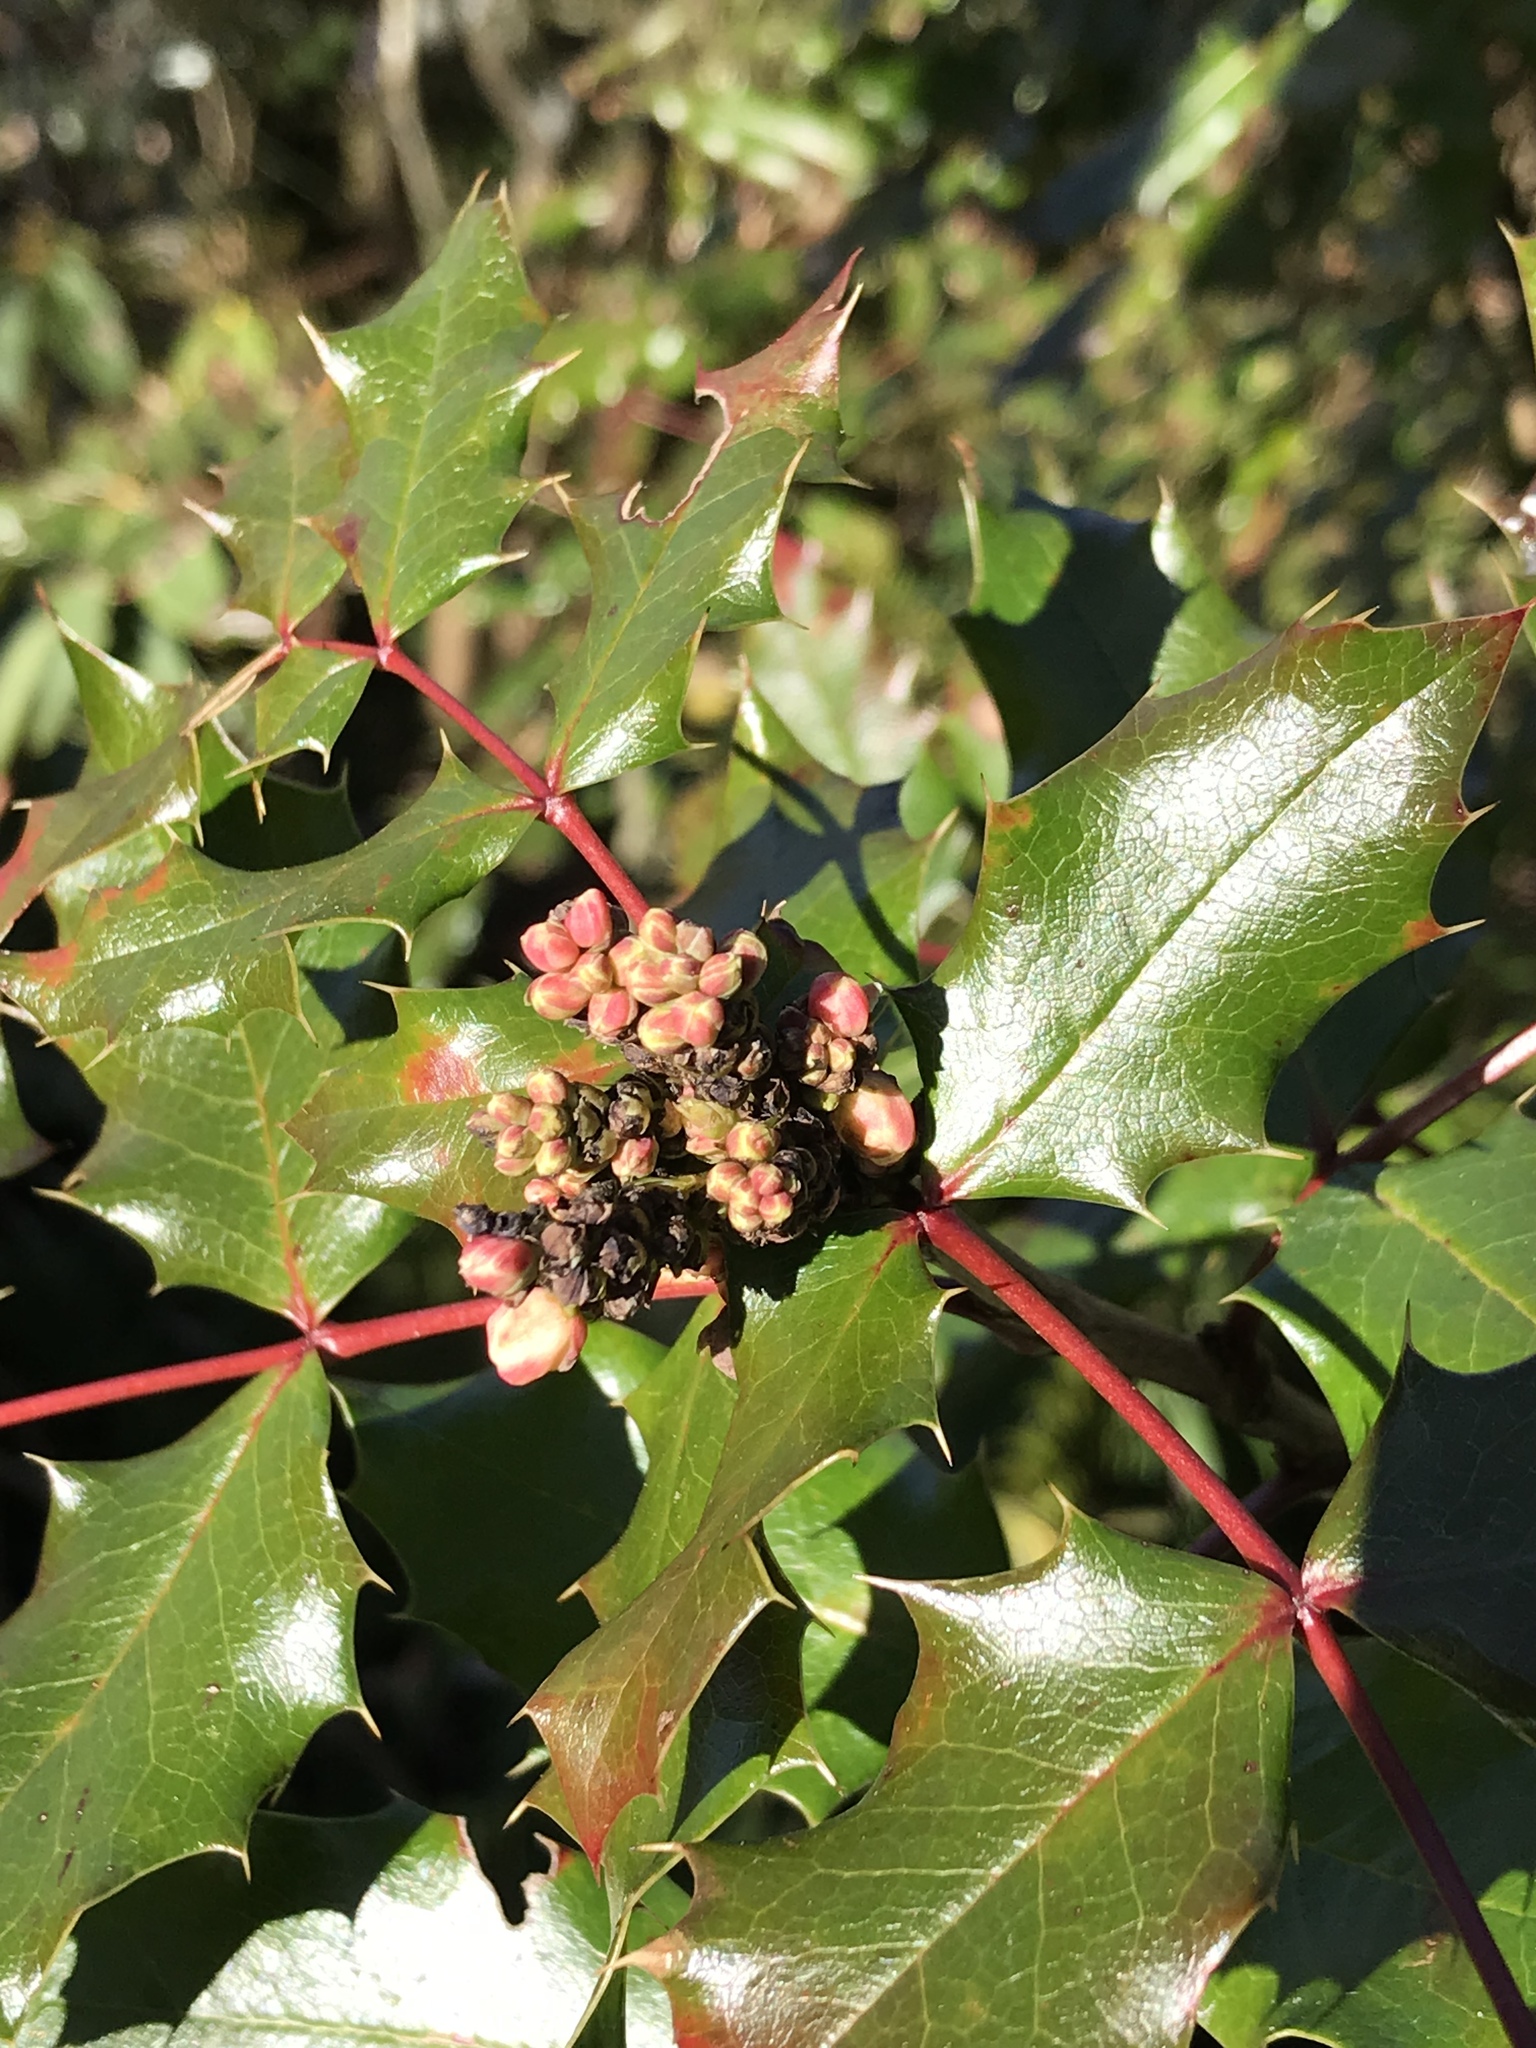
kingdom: Plantae
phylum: Tracheophyta
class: Magnoliopsida
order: Ranunculales
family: Berberidaceae
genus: Mahonia
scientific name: Mahonia aquifolium
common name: Oregon-grape
